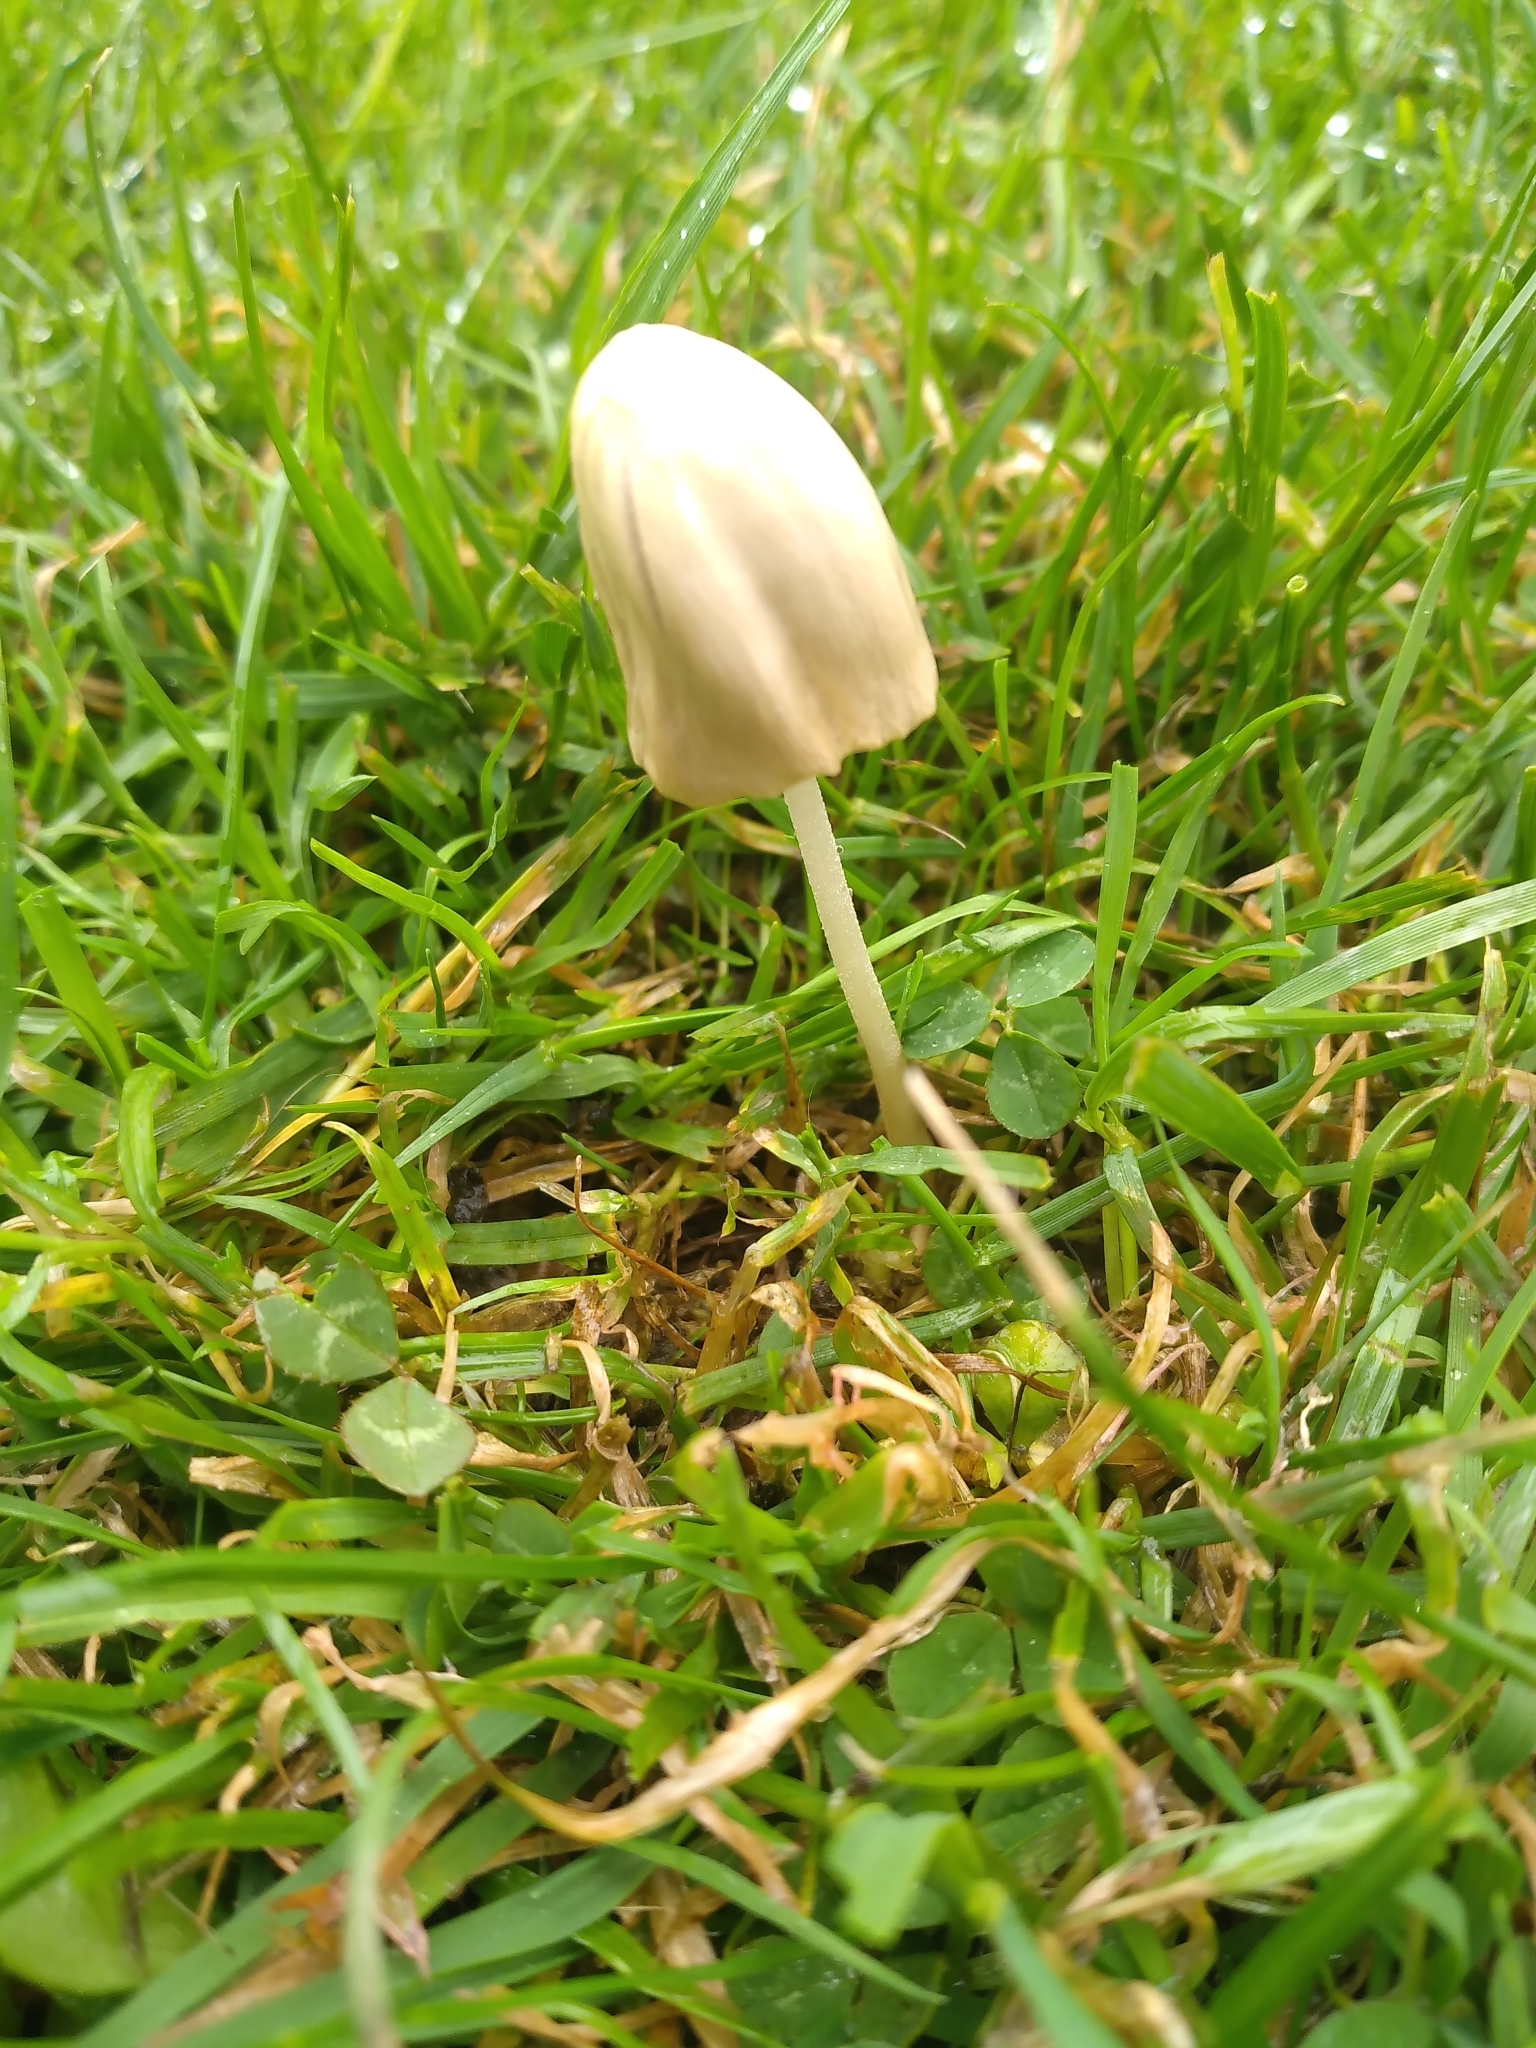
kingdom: Fungi
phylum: Basidiomycota
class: Agaricomycetes
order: Agaricales
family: Bolbitiaceae
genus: Conocybe
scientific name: Conocybe apala
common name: Milky conecap
